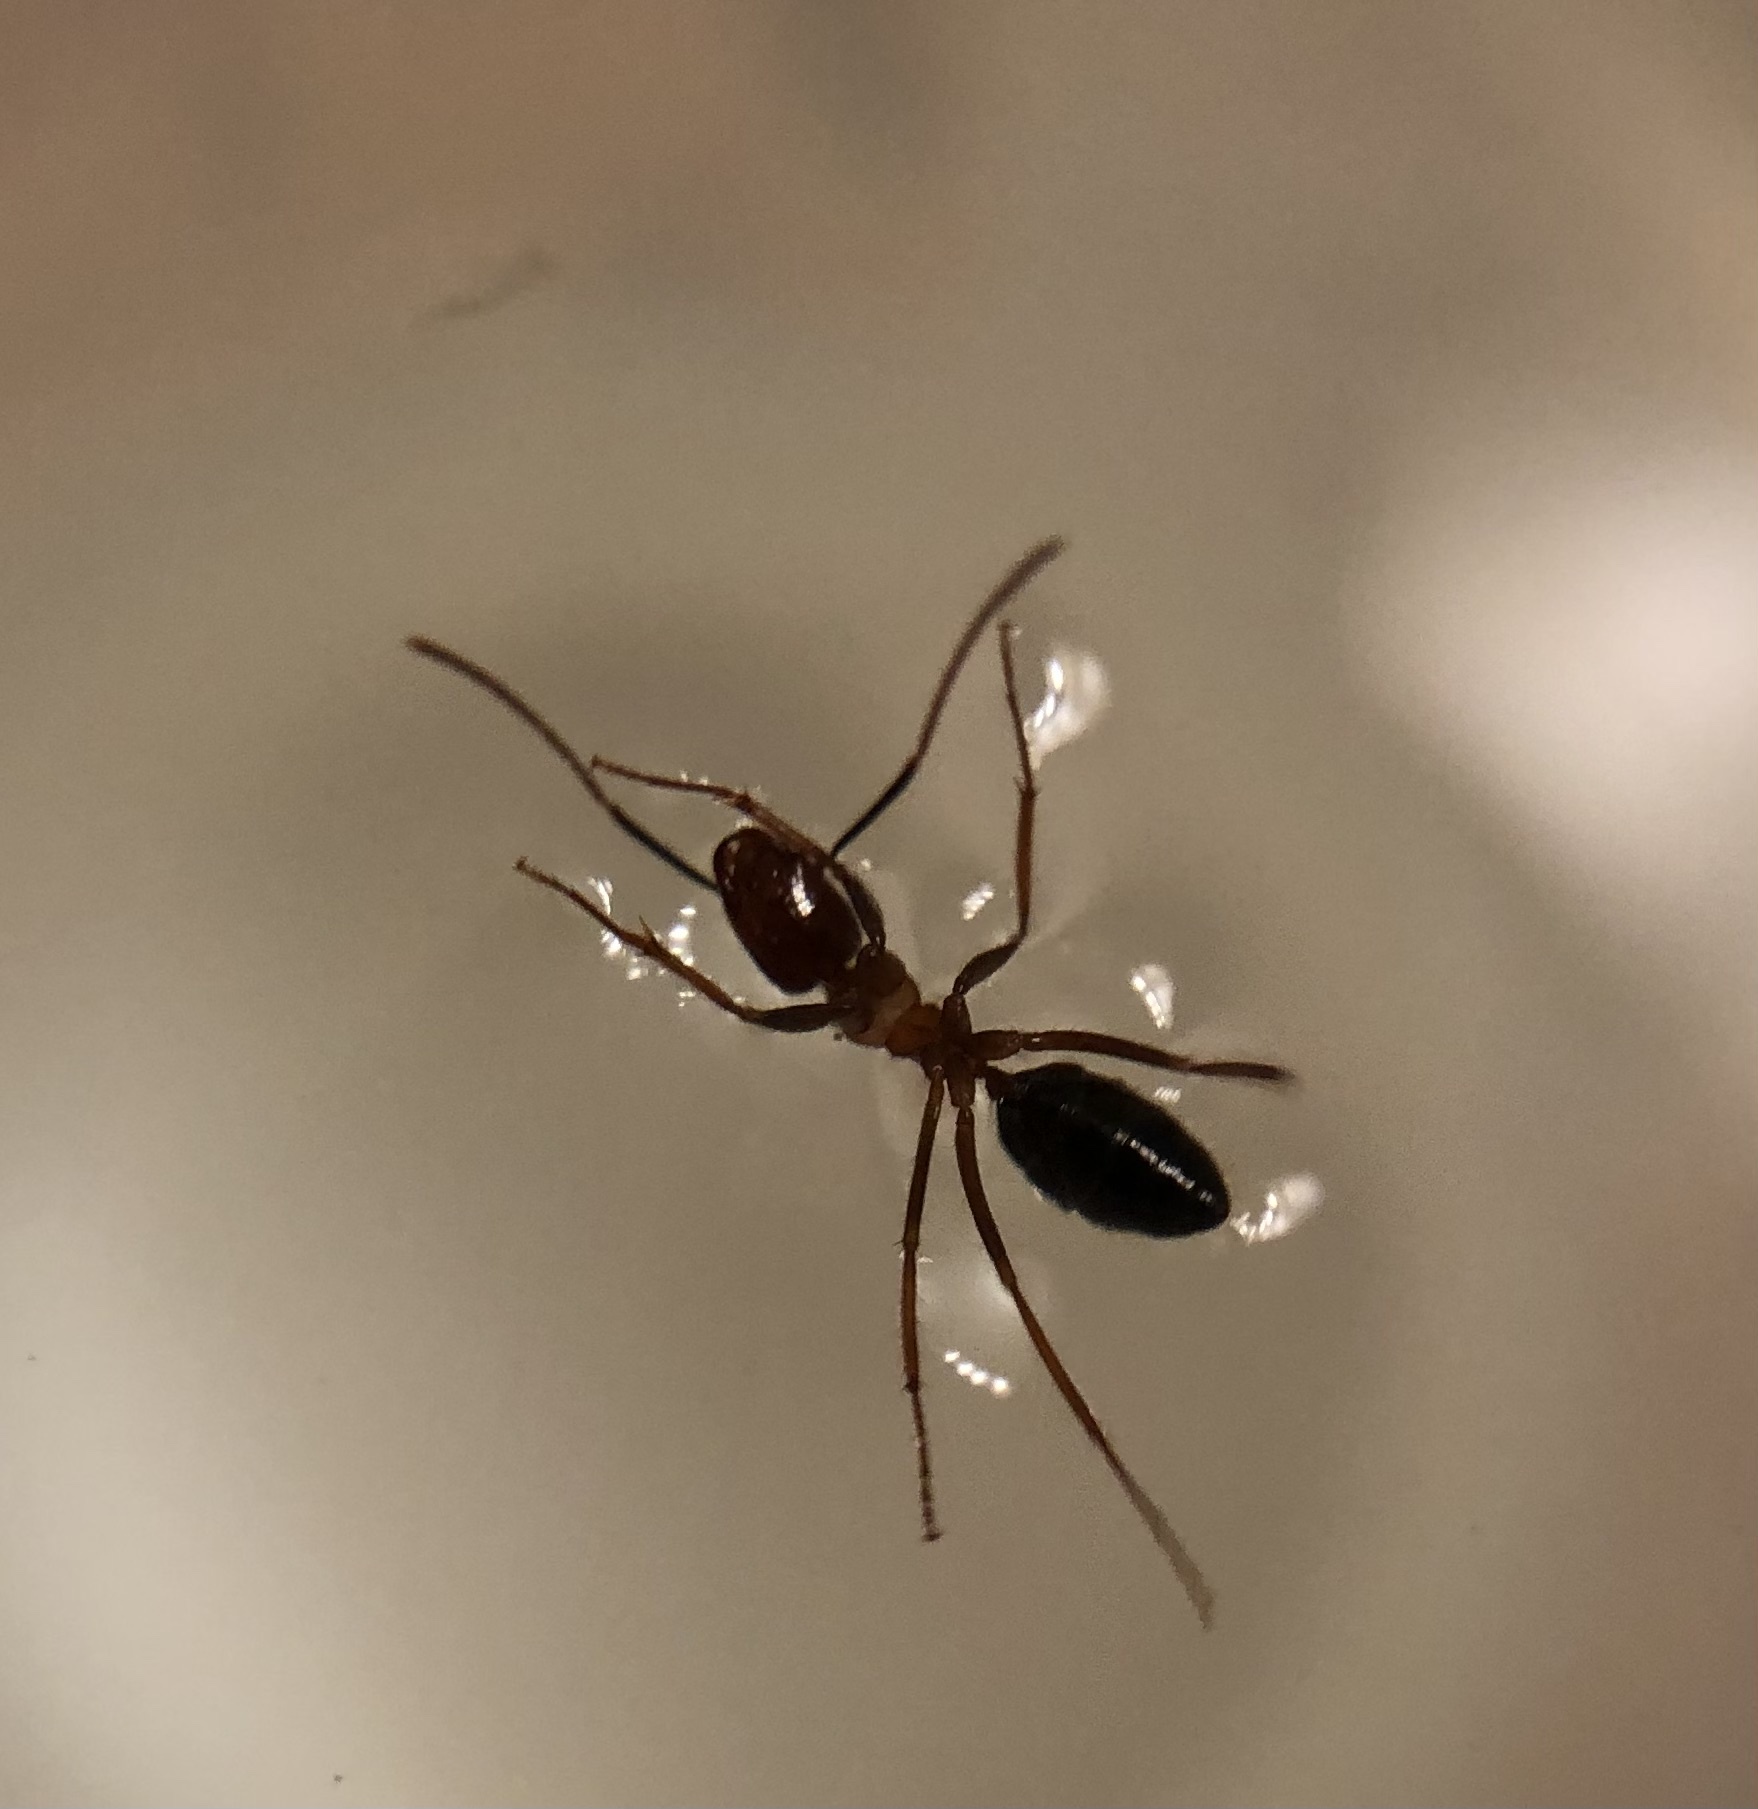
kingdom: Animalia
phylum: Arthropoda
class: Insecta
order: Hymenoptera
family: Formicidae
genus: Camponotus
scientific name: Camponotus floridanus
